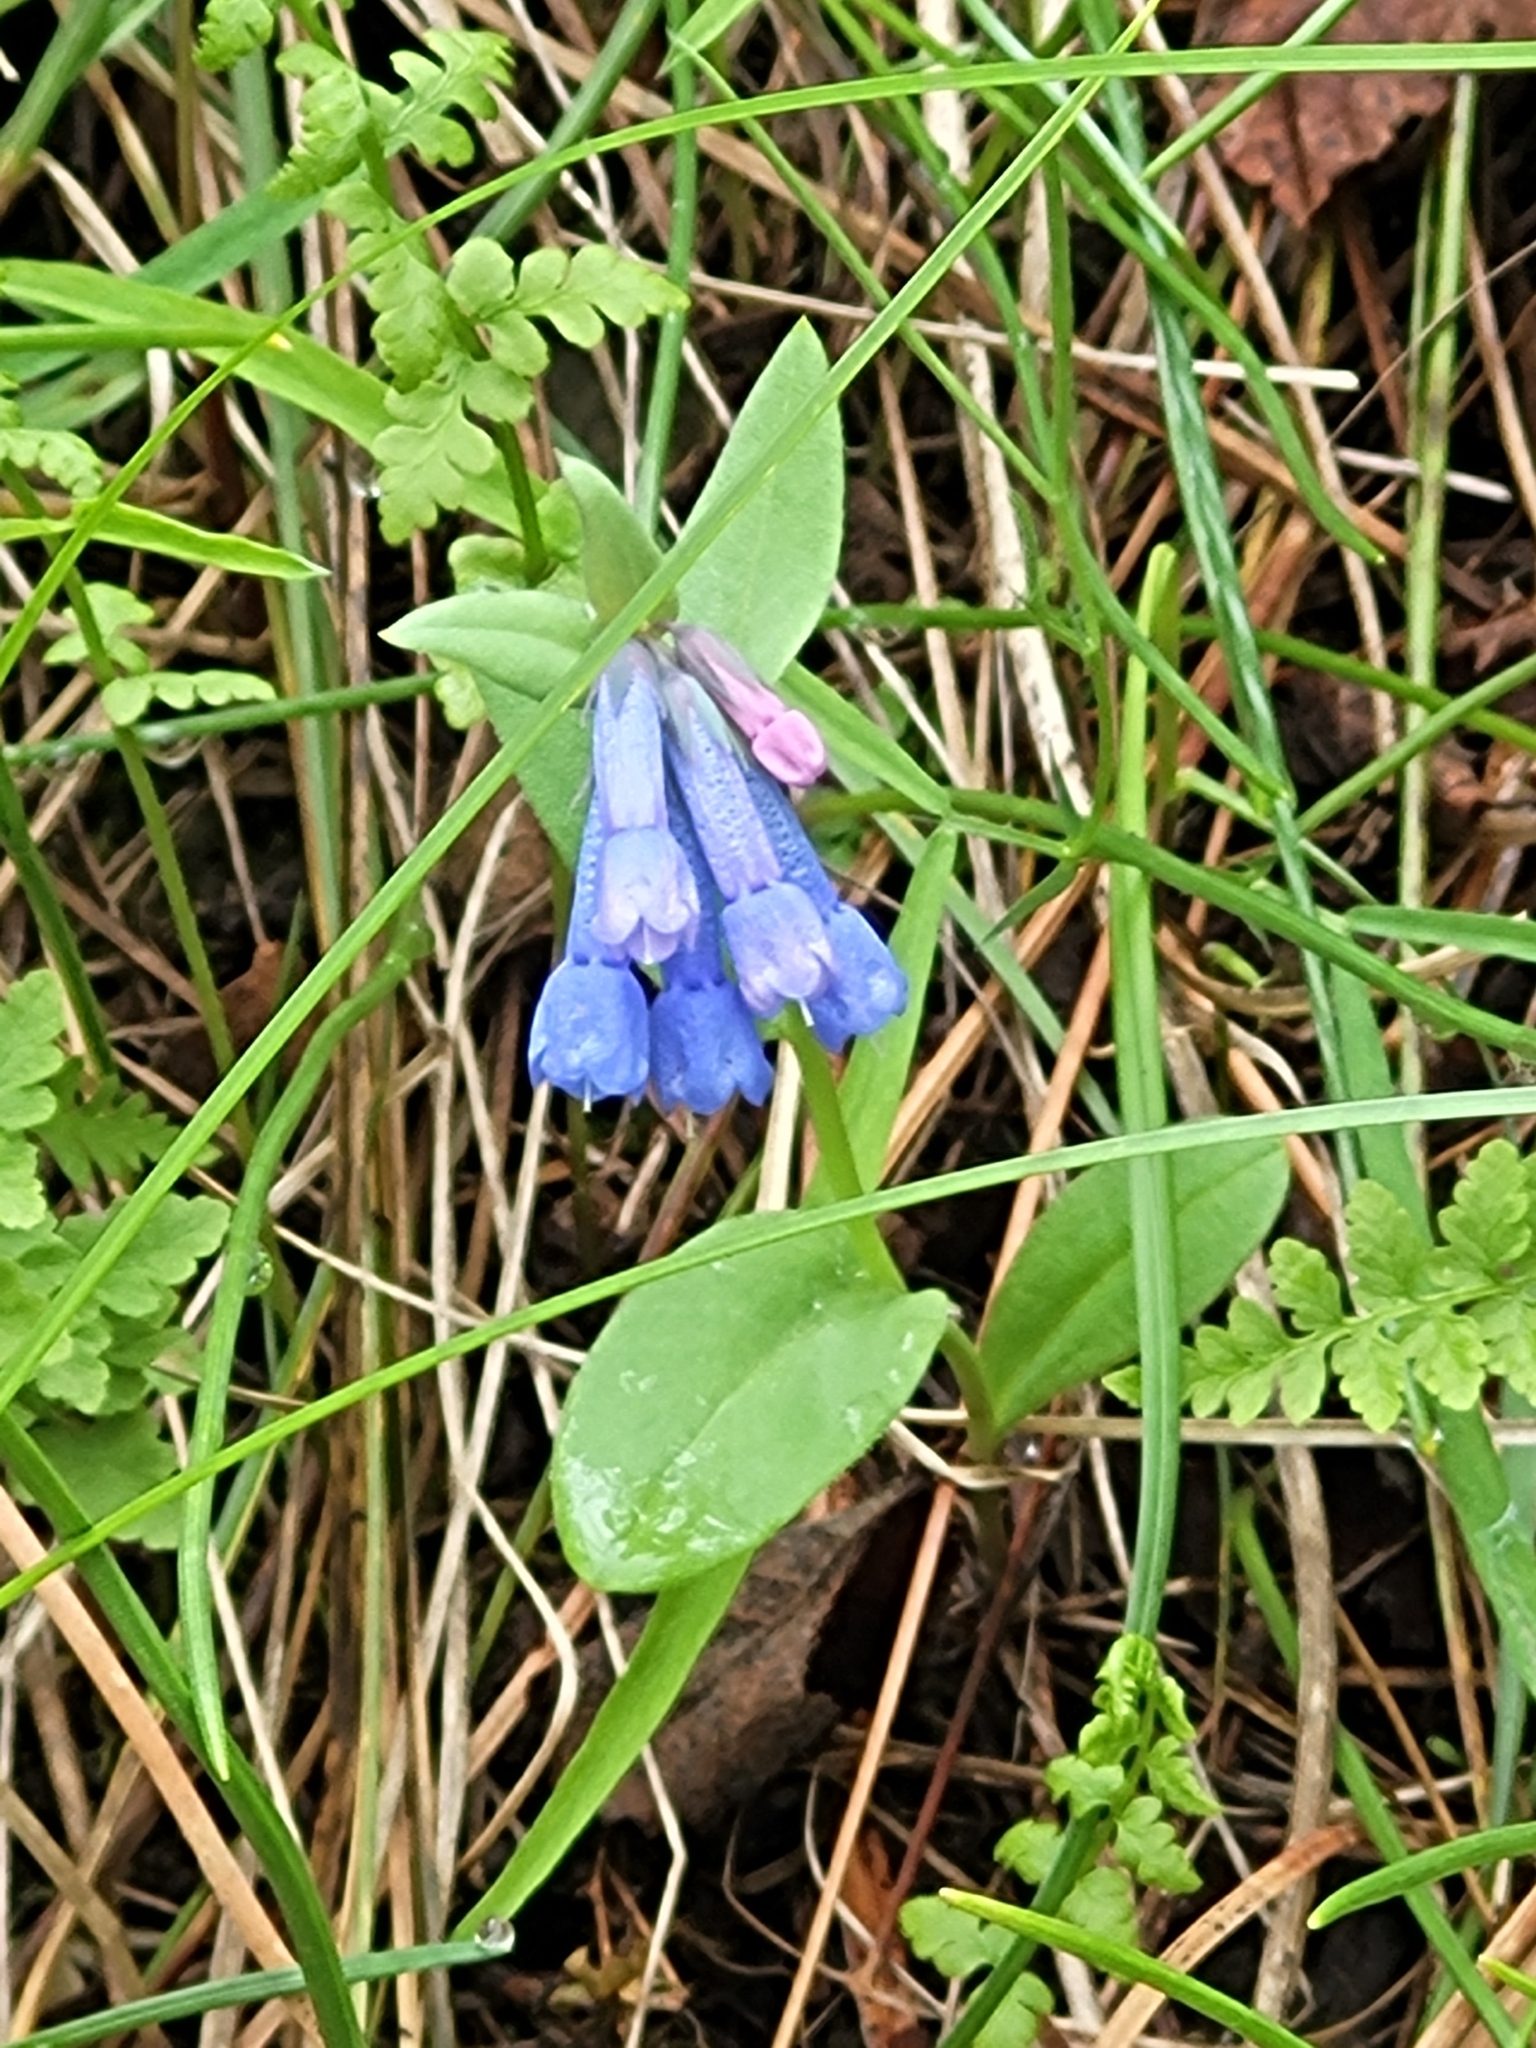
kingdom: Plantae
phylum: Tracheophyta
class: Magnoliopsida
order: Boraginales
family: Boraginaceae
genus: Mertensia
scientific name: Mertensia longiflora
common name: Large-flowered bluebells
